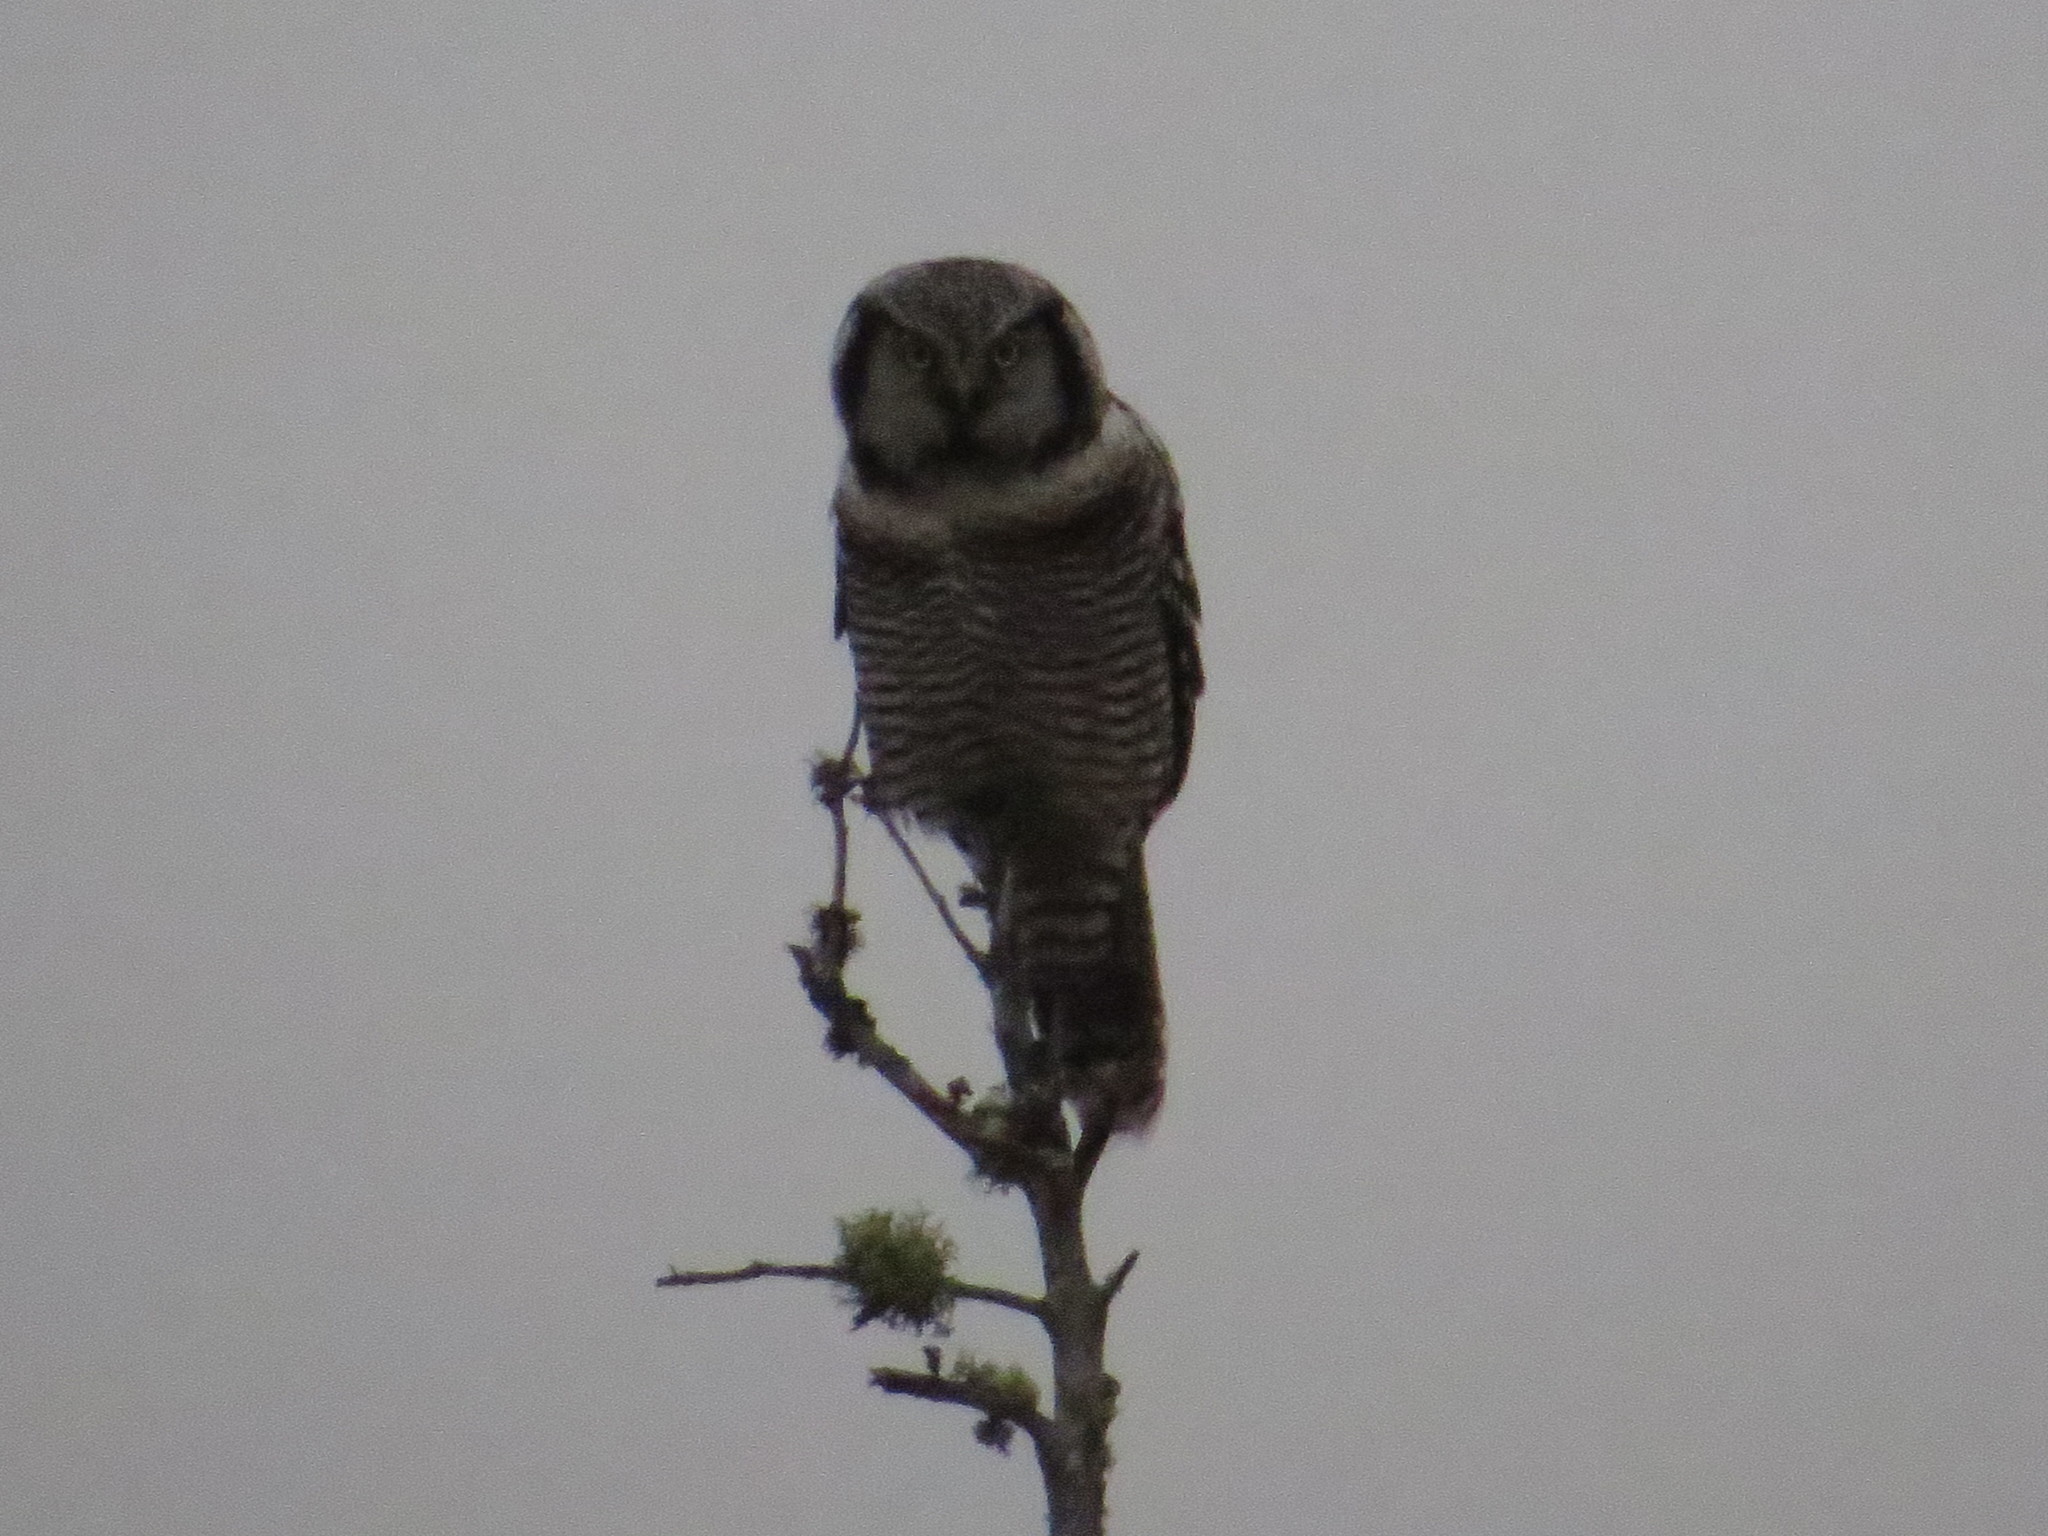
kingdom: Animalia
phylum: Chordata
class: Aves
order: Strigiformes
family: Strigidae
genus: Surnia
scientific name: Surnia ulula
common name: Northern hawk-owl
